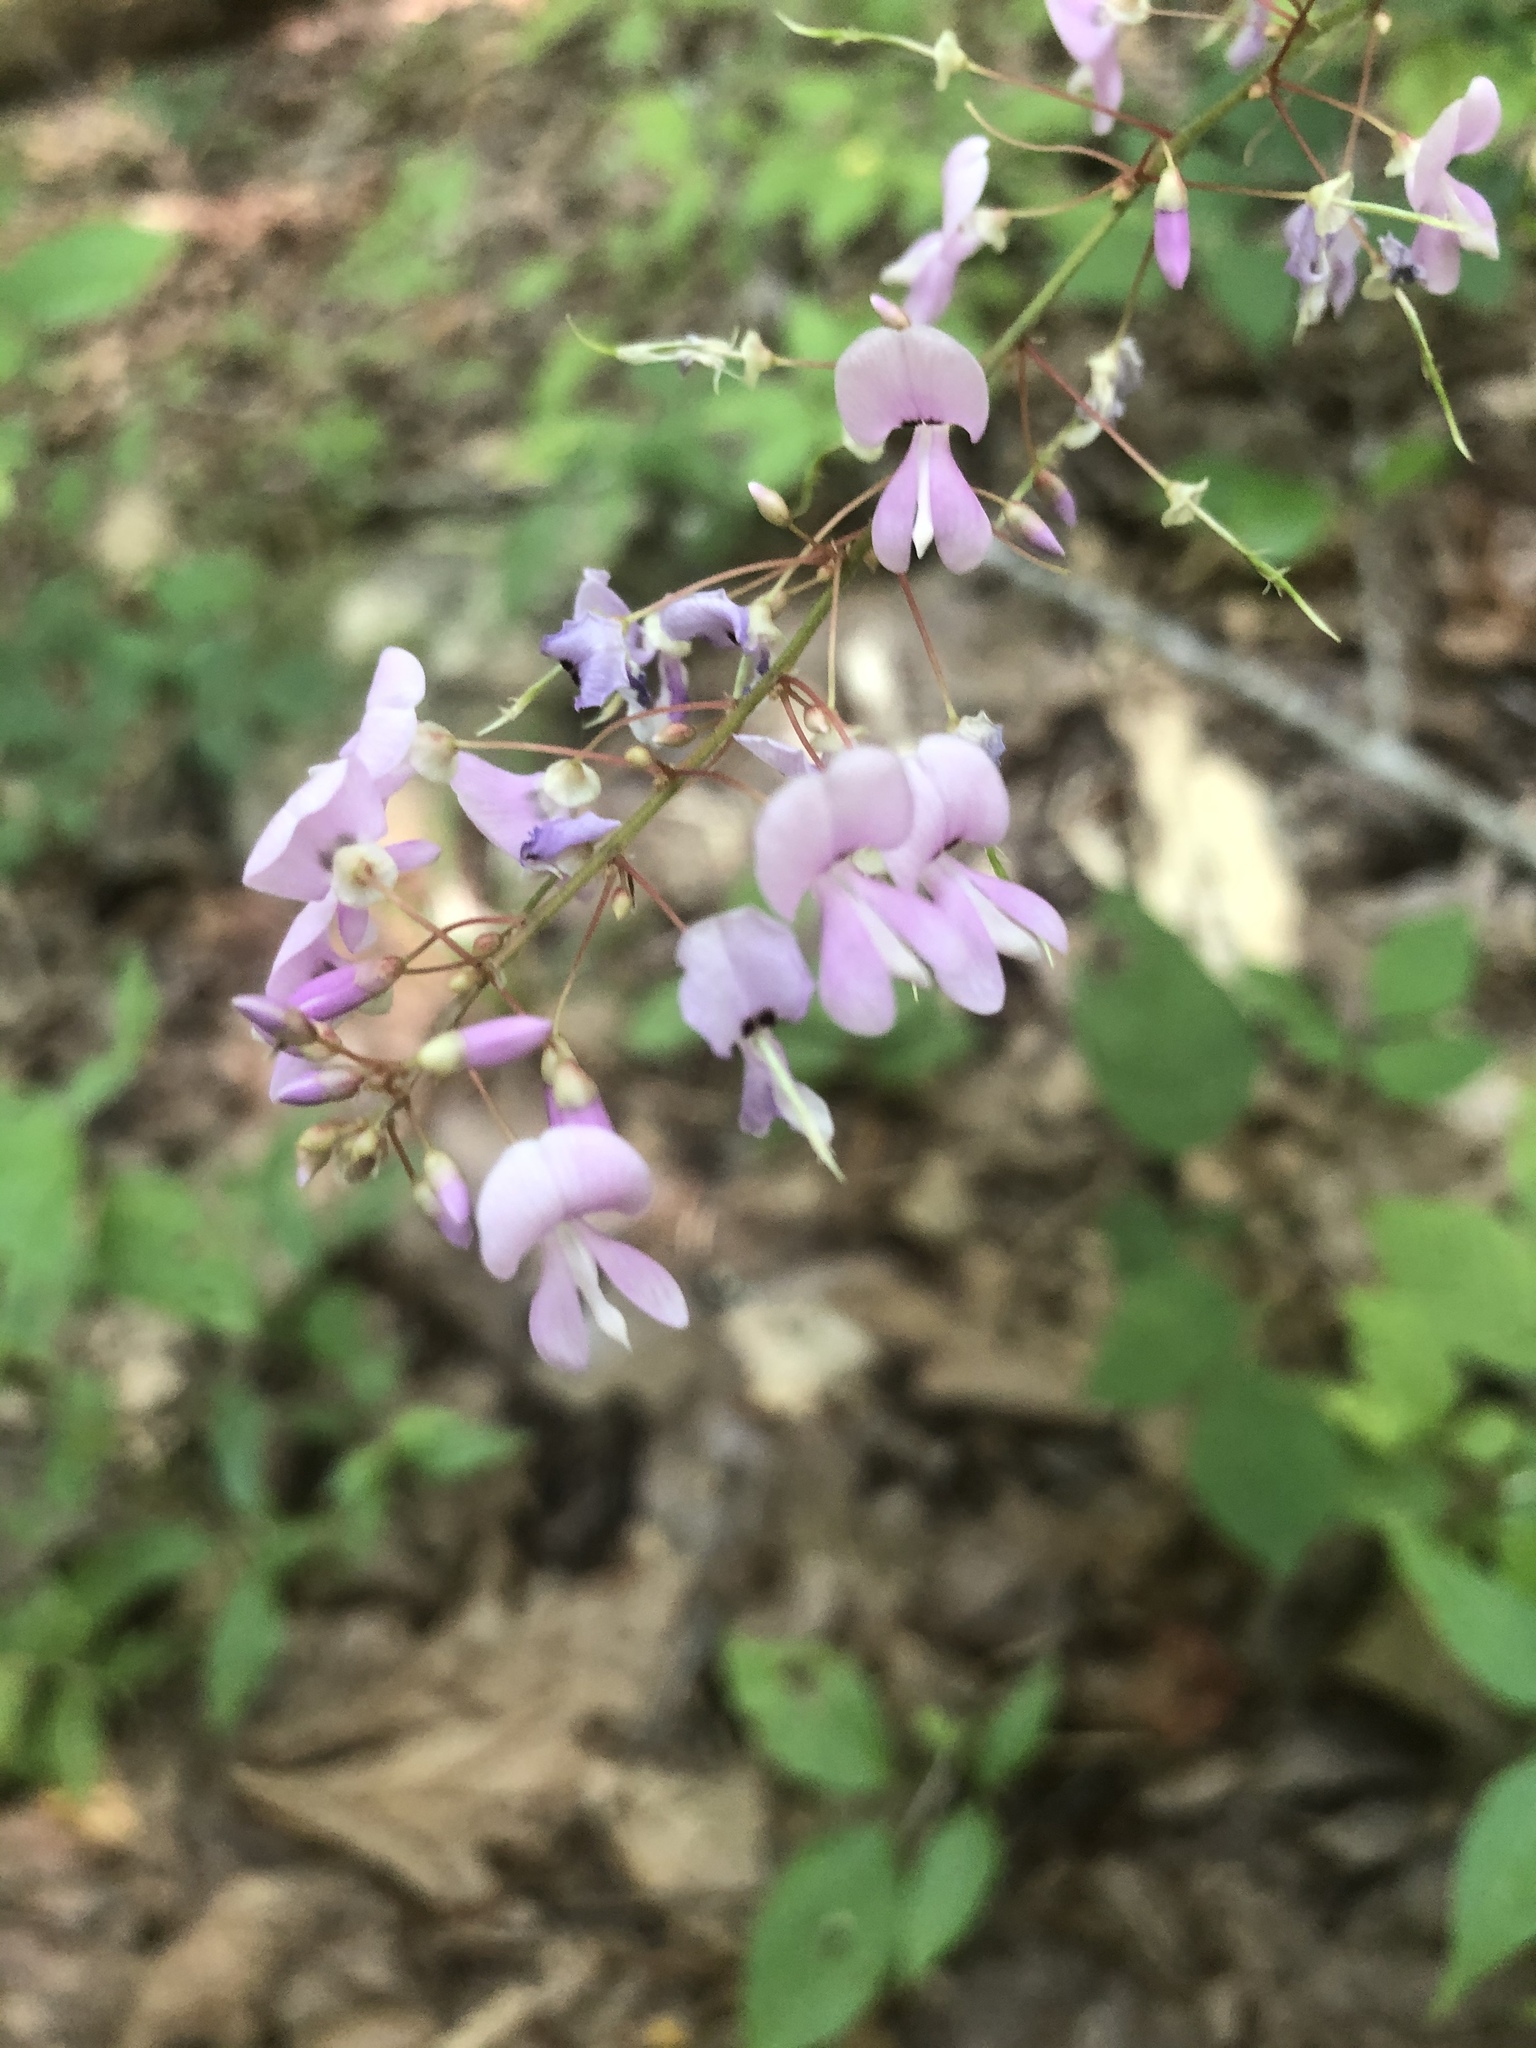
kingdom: Plantae
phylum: Tracheophyta
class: Magnoliopsida
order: Fabales
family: Fabaceae
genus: Hylodesmum
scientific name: Hylodesmum nudiflorum
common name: Bare-stemmed tick-trefoil
